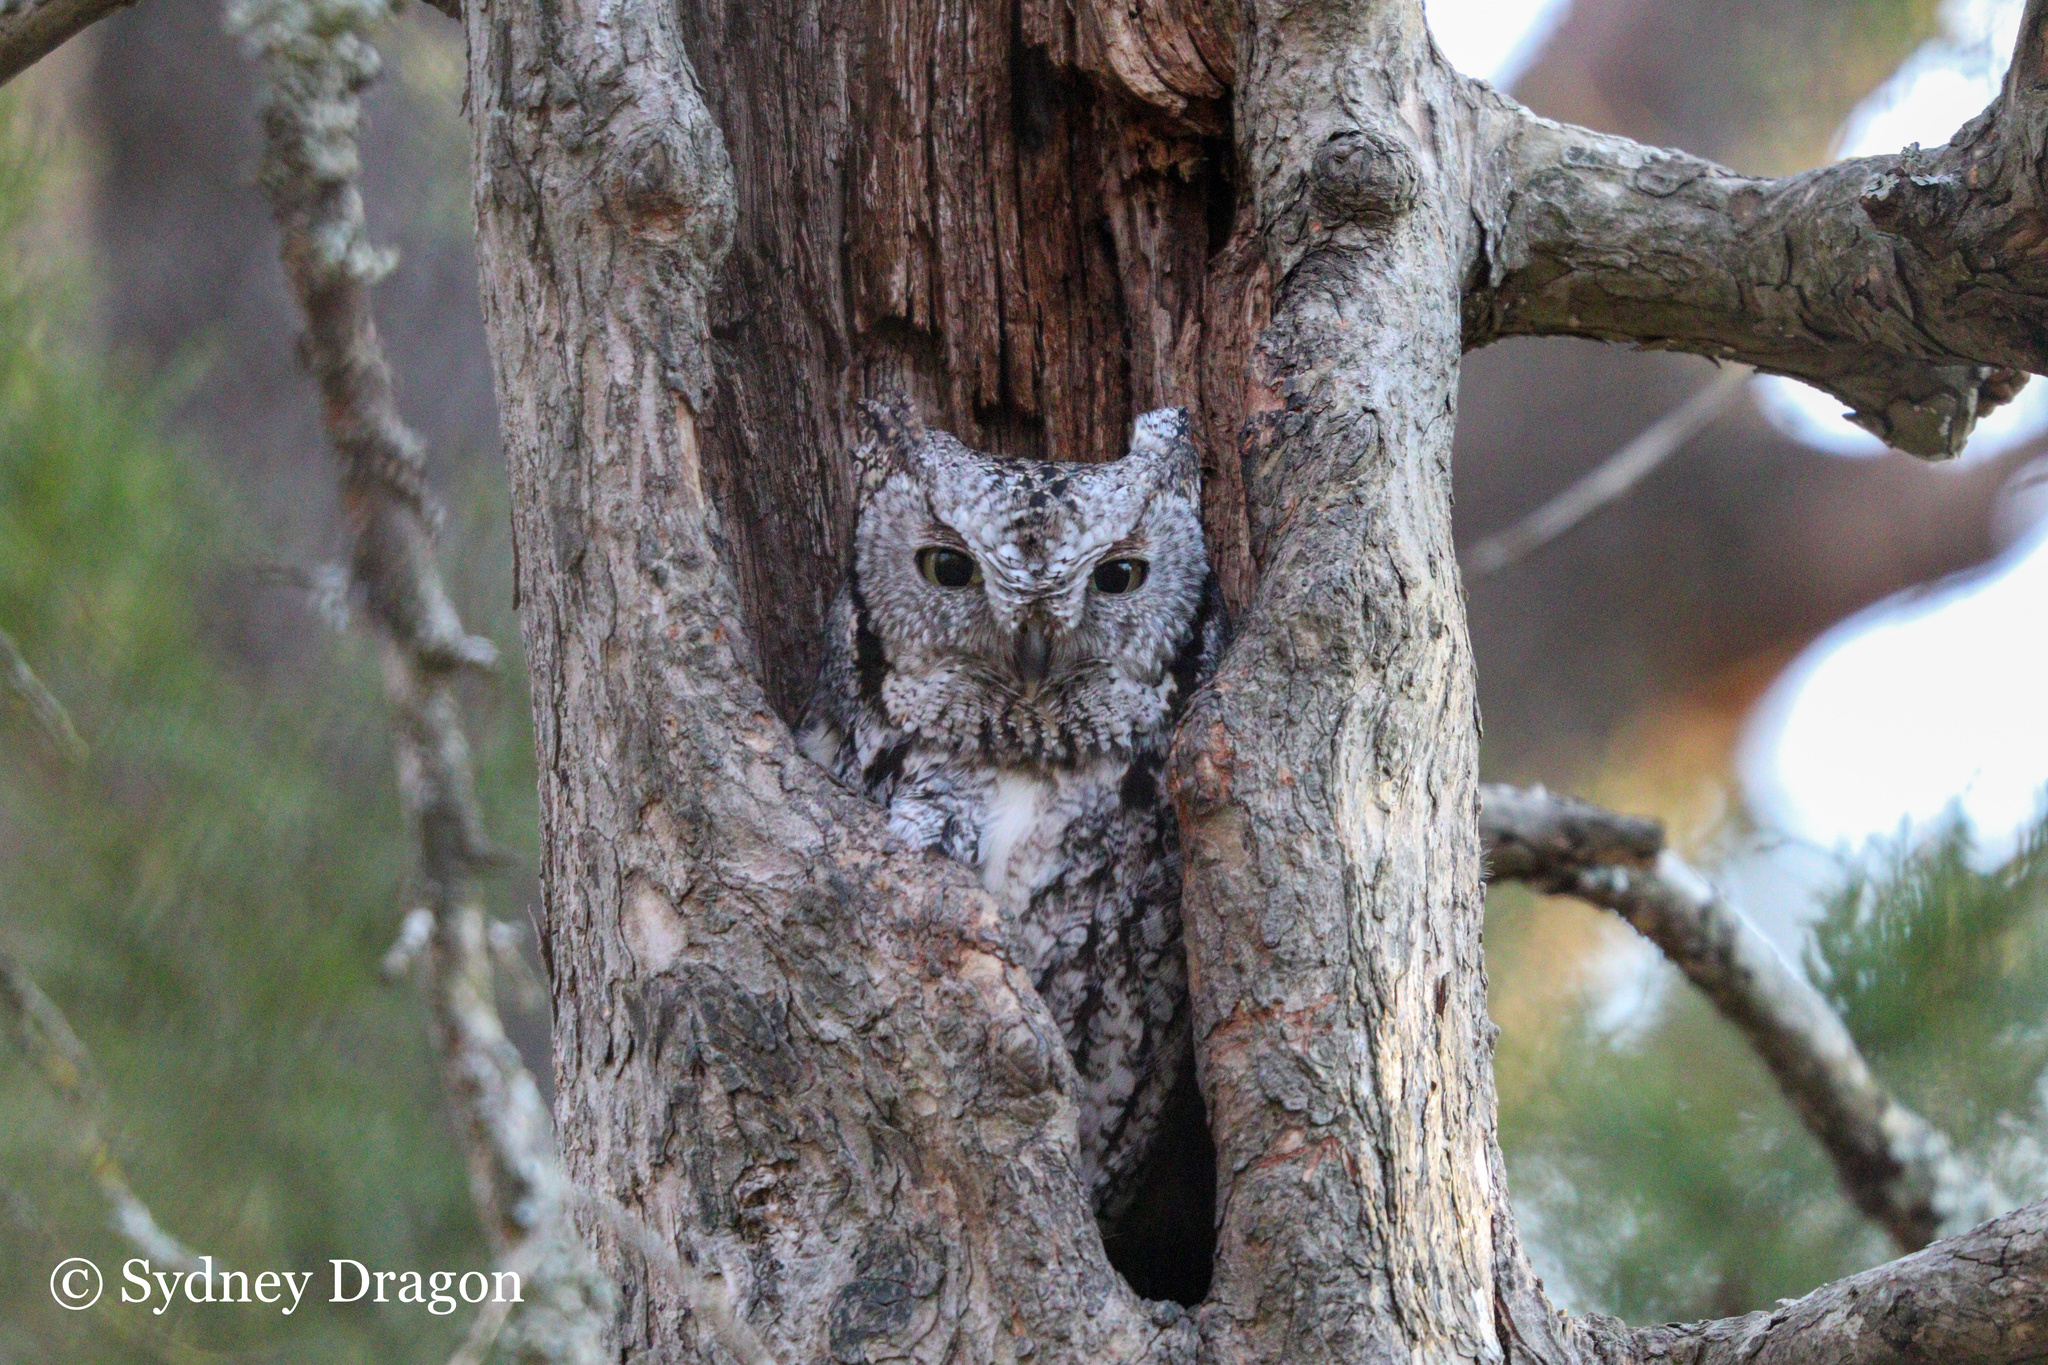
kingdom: Animalia
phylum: Chordata
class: Aves
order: Strigiformes
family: Strigidae
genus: Megascops
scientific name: Megascops asio
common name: Eastern screech-owl
